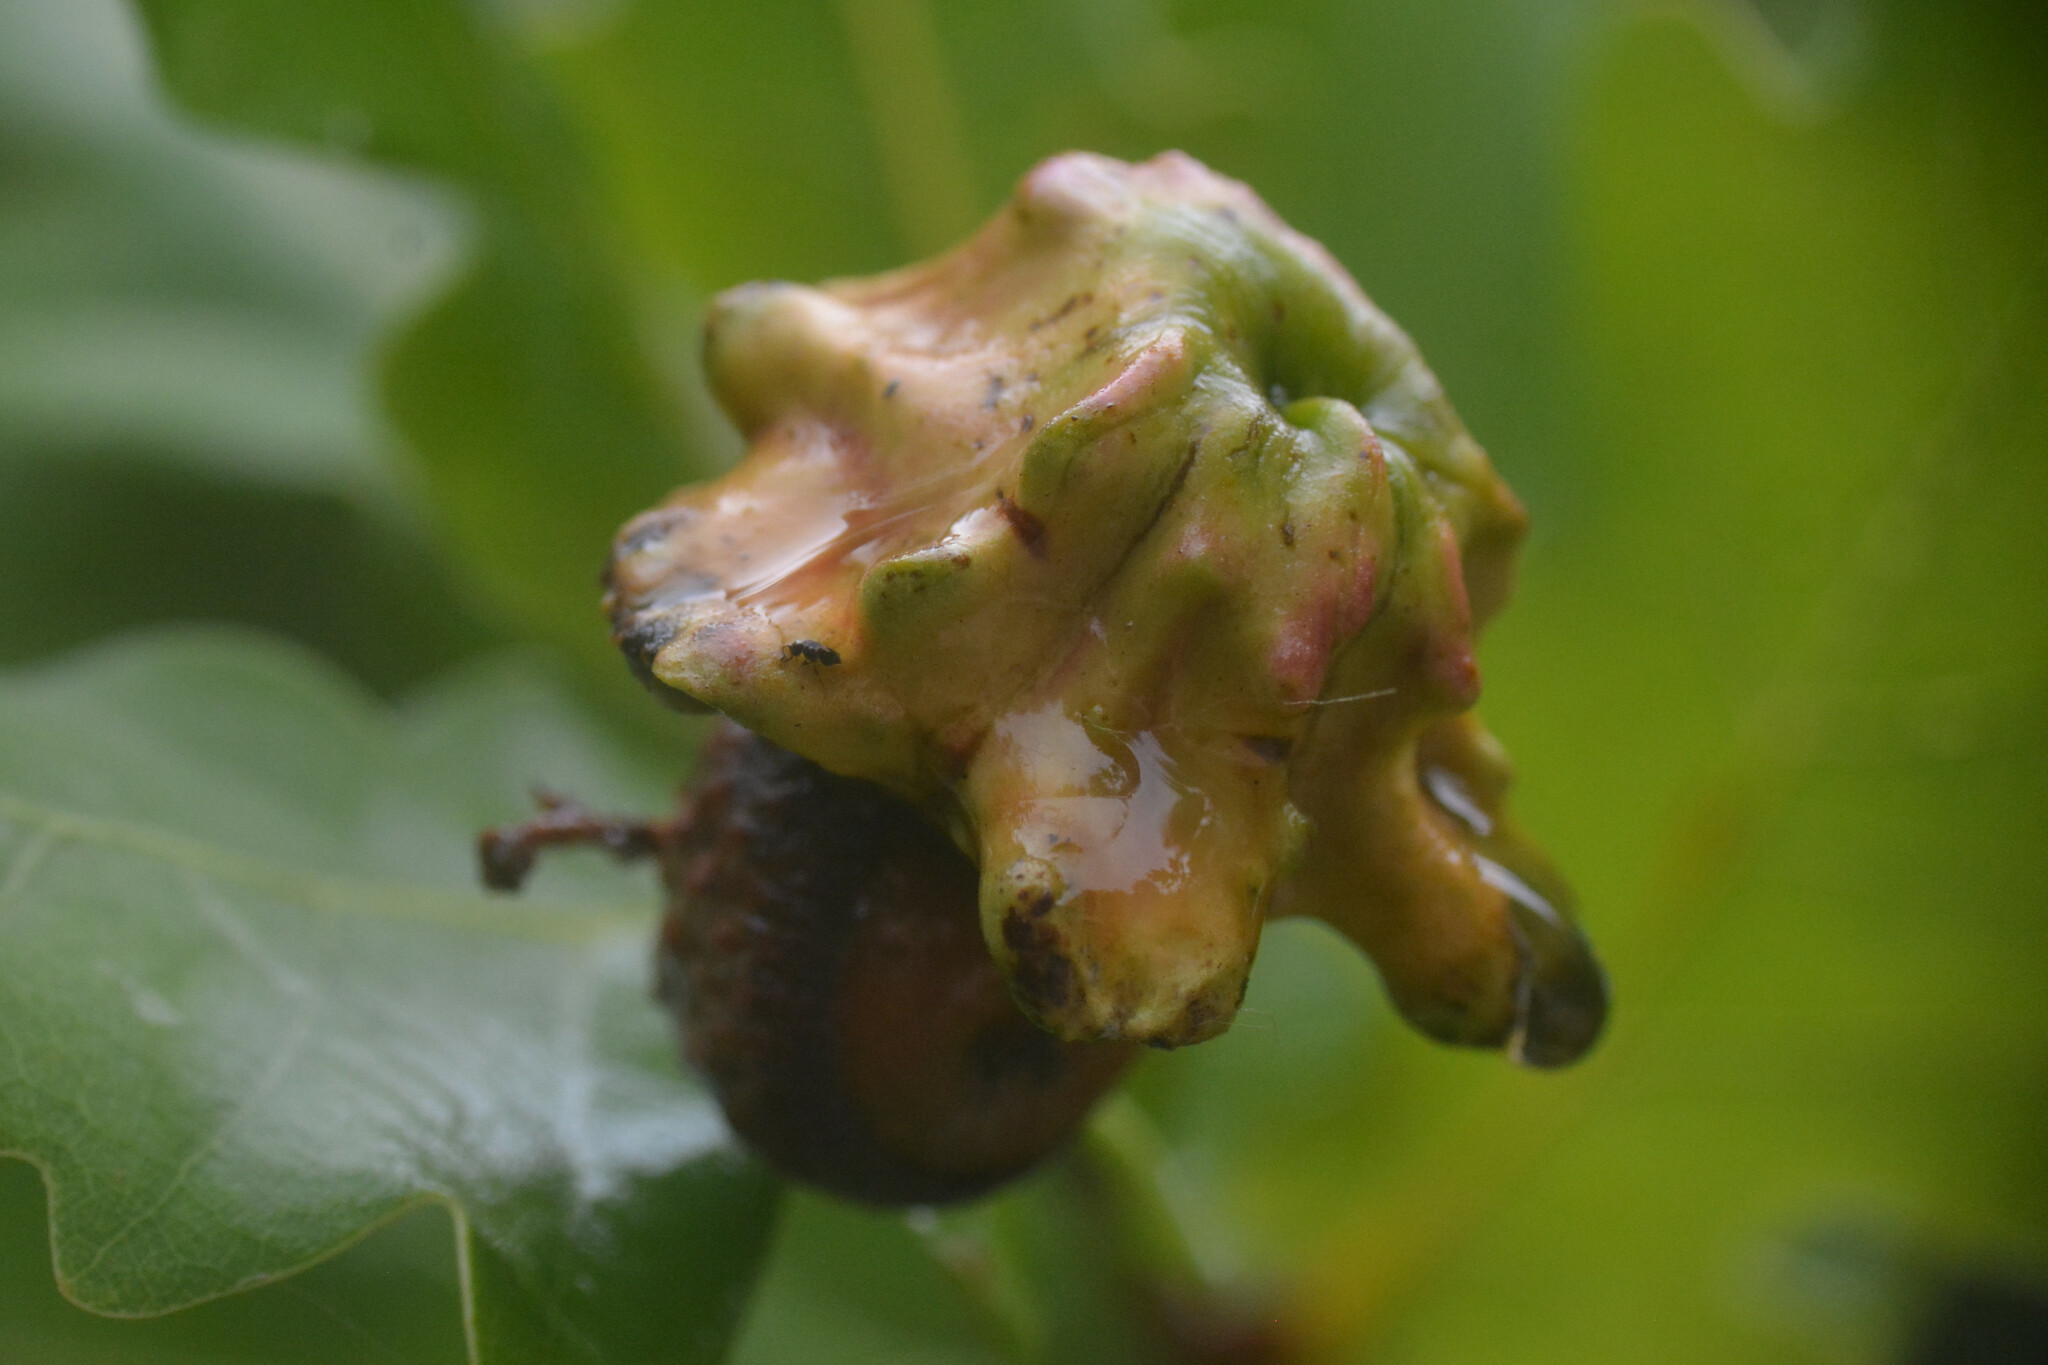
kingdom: Animalia
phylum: Arthropoda
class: Insecta
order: Hymenoptera
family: Cynipidae
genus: Andricus
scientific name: Andricus quercuscalicis
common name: Knopper gall
